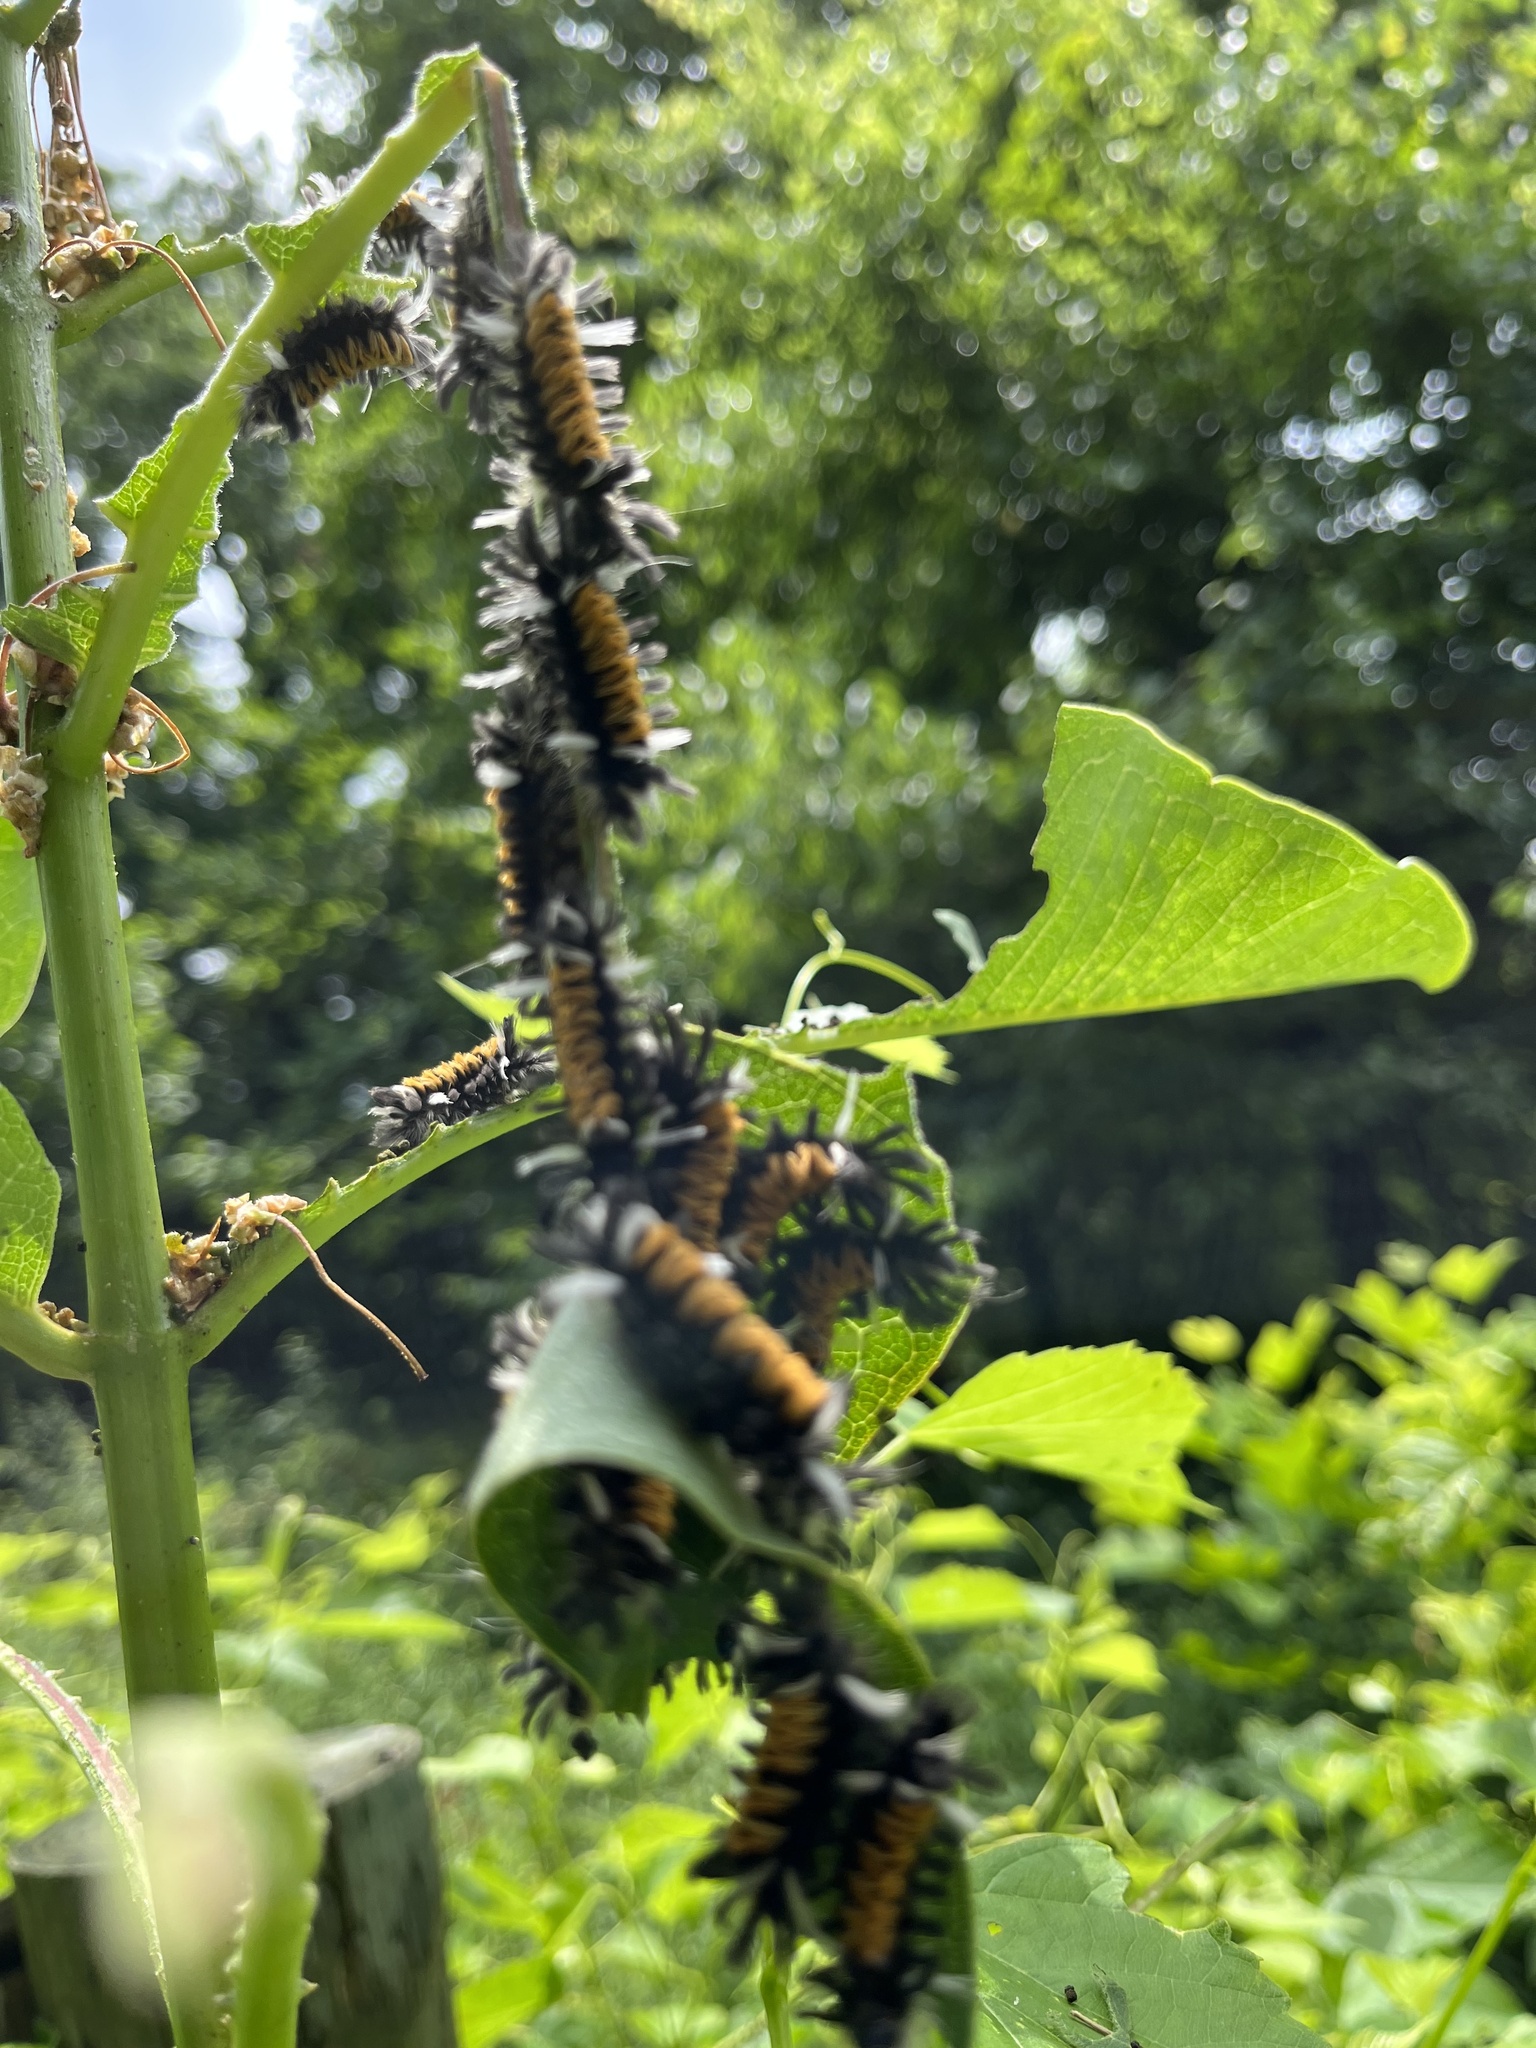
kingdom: Animalia
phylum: Arthropoda
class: Insecta
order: Lepidoptera
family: Erebidae
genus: Euchaetes
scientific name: Euchaetes egle
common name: Milkweed tussock moth
